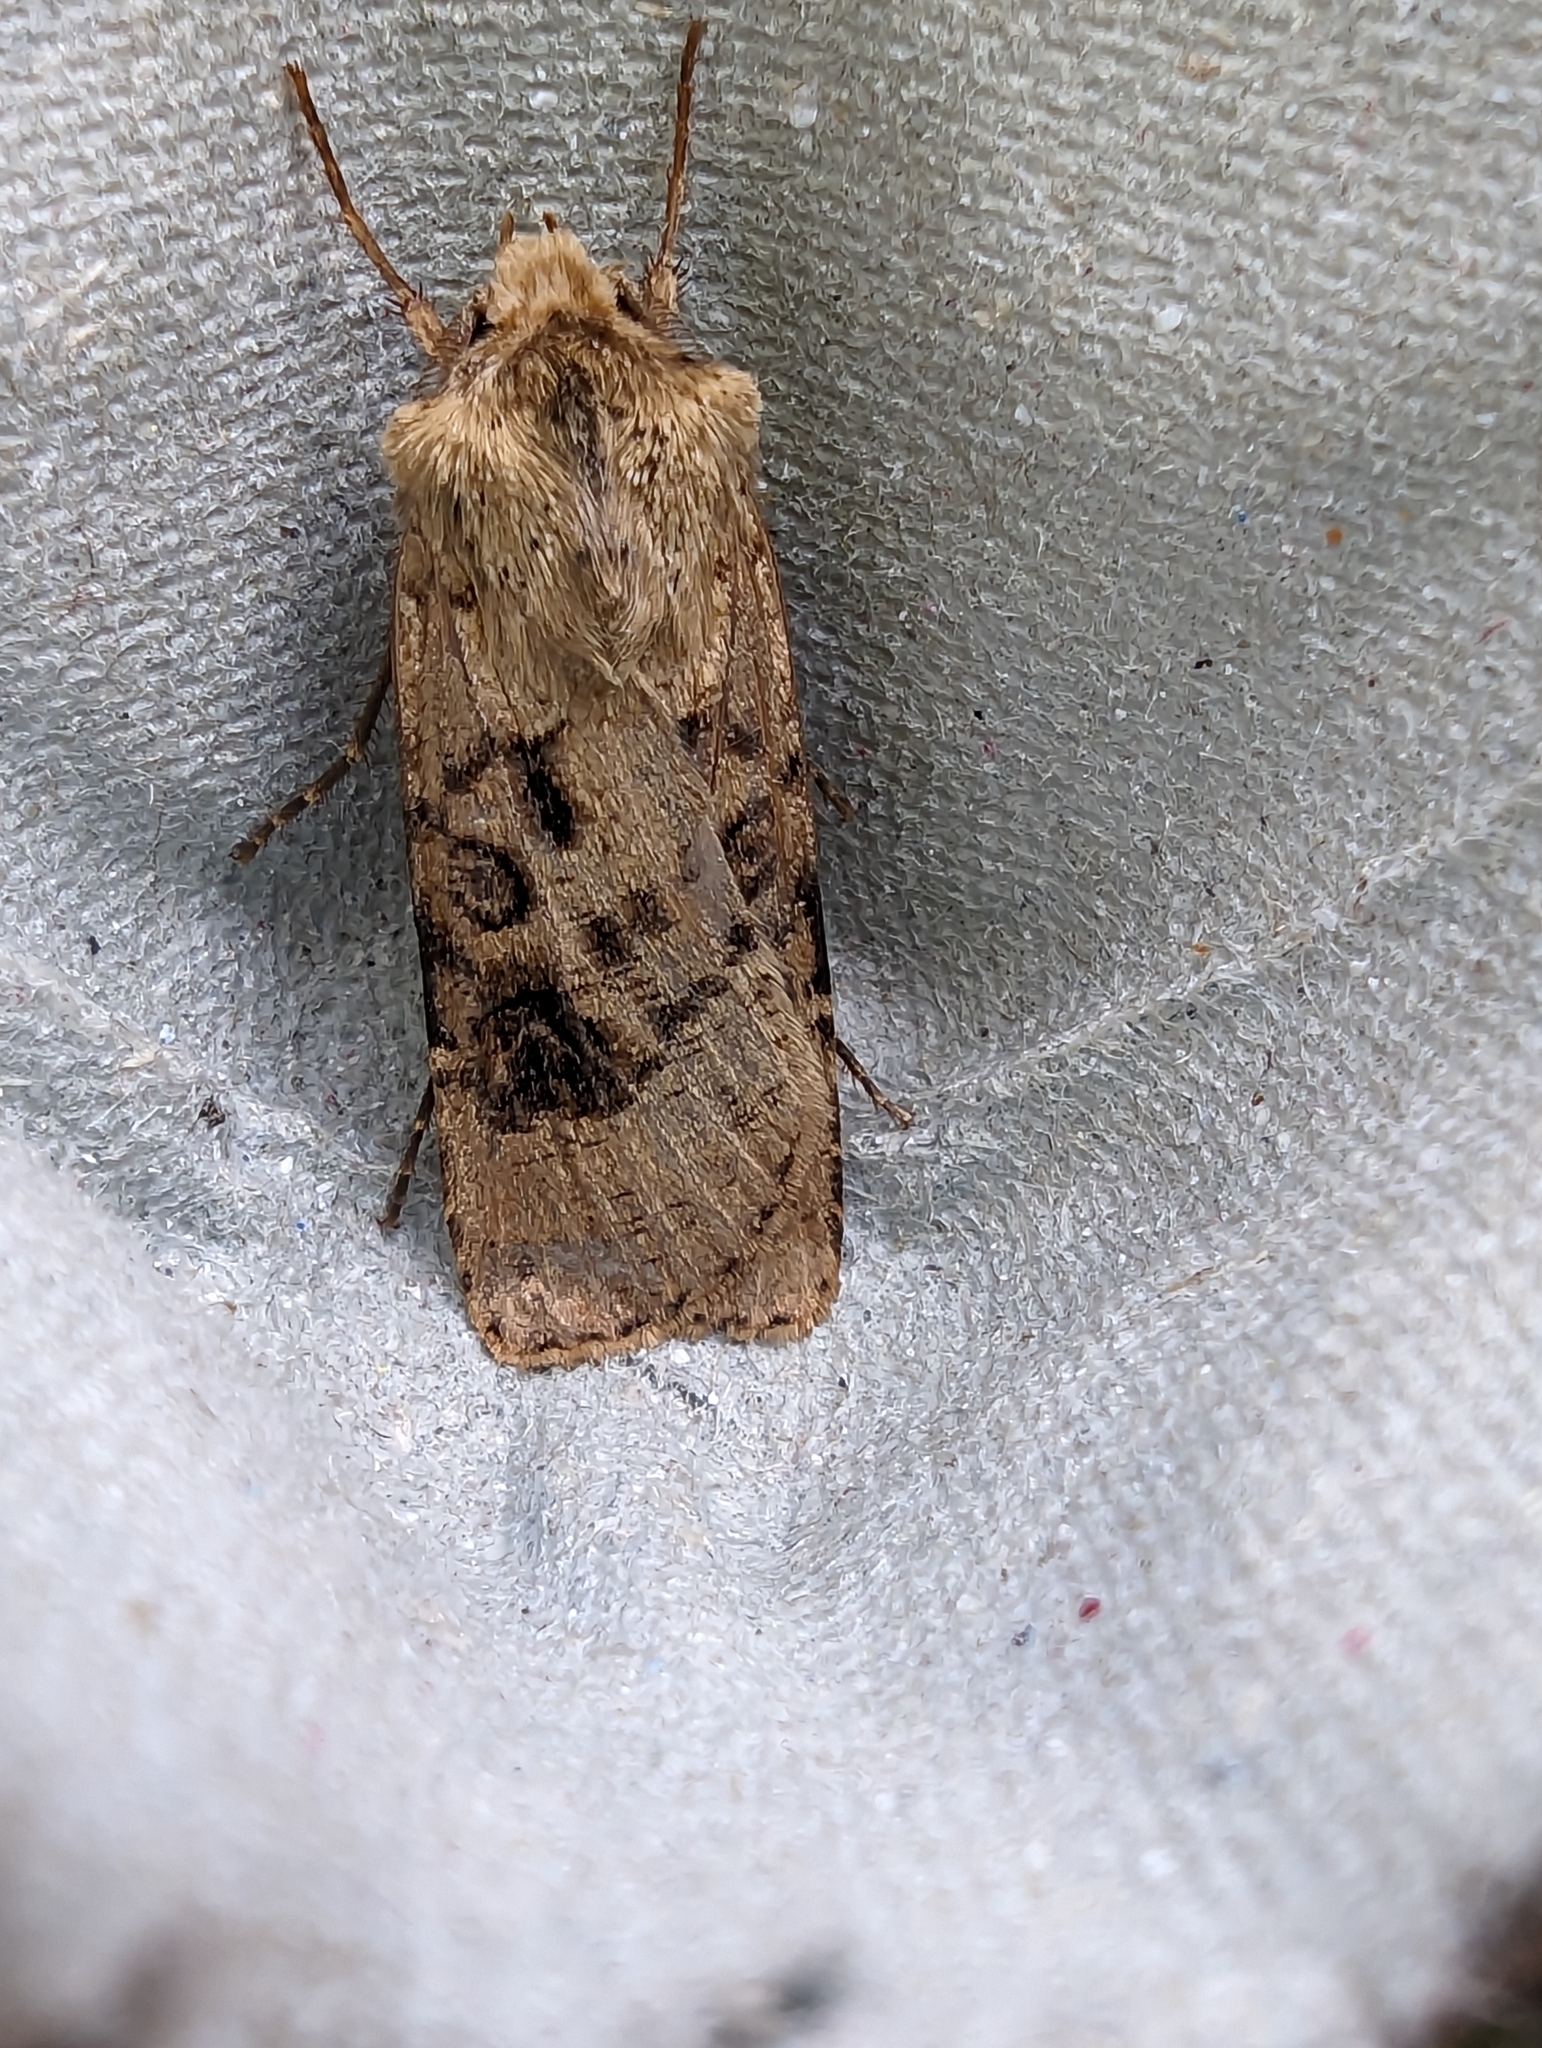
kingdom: Animalia
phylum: Arthropoda
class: Insecta
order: Lepidoptera
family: Noctuidae
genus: Agrotis
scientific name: Agrotis clavis
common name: Heart and club
